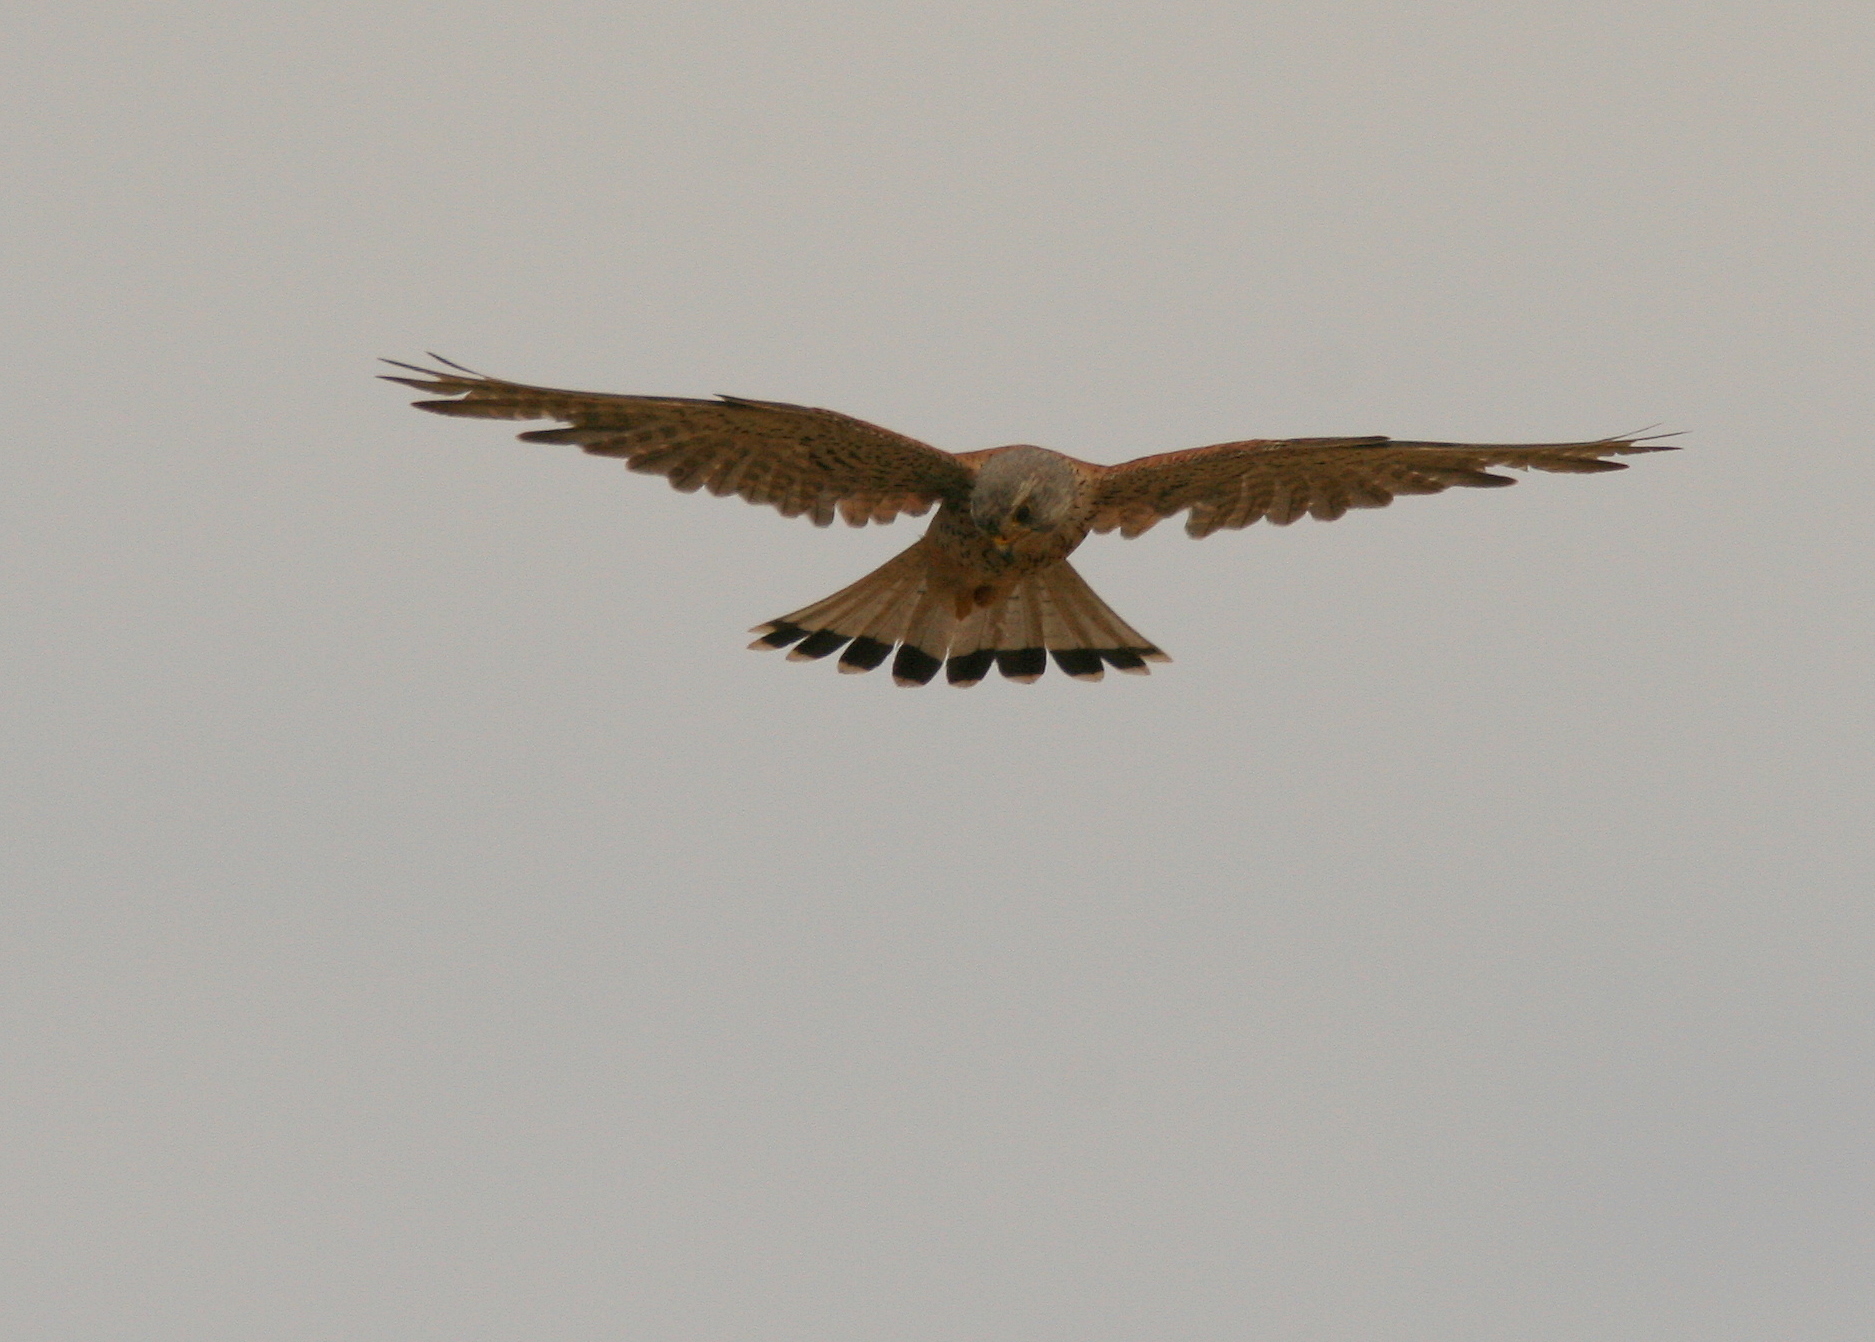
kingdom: Animalia
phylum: Chordata
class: Aves
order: Falconiformes
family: Falconidae
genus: Falco
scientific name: Falco tinnunculus
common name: Common kestrel
